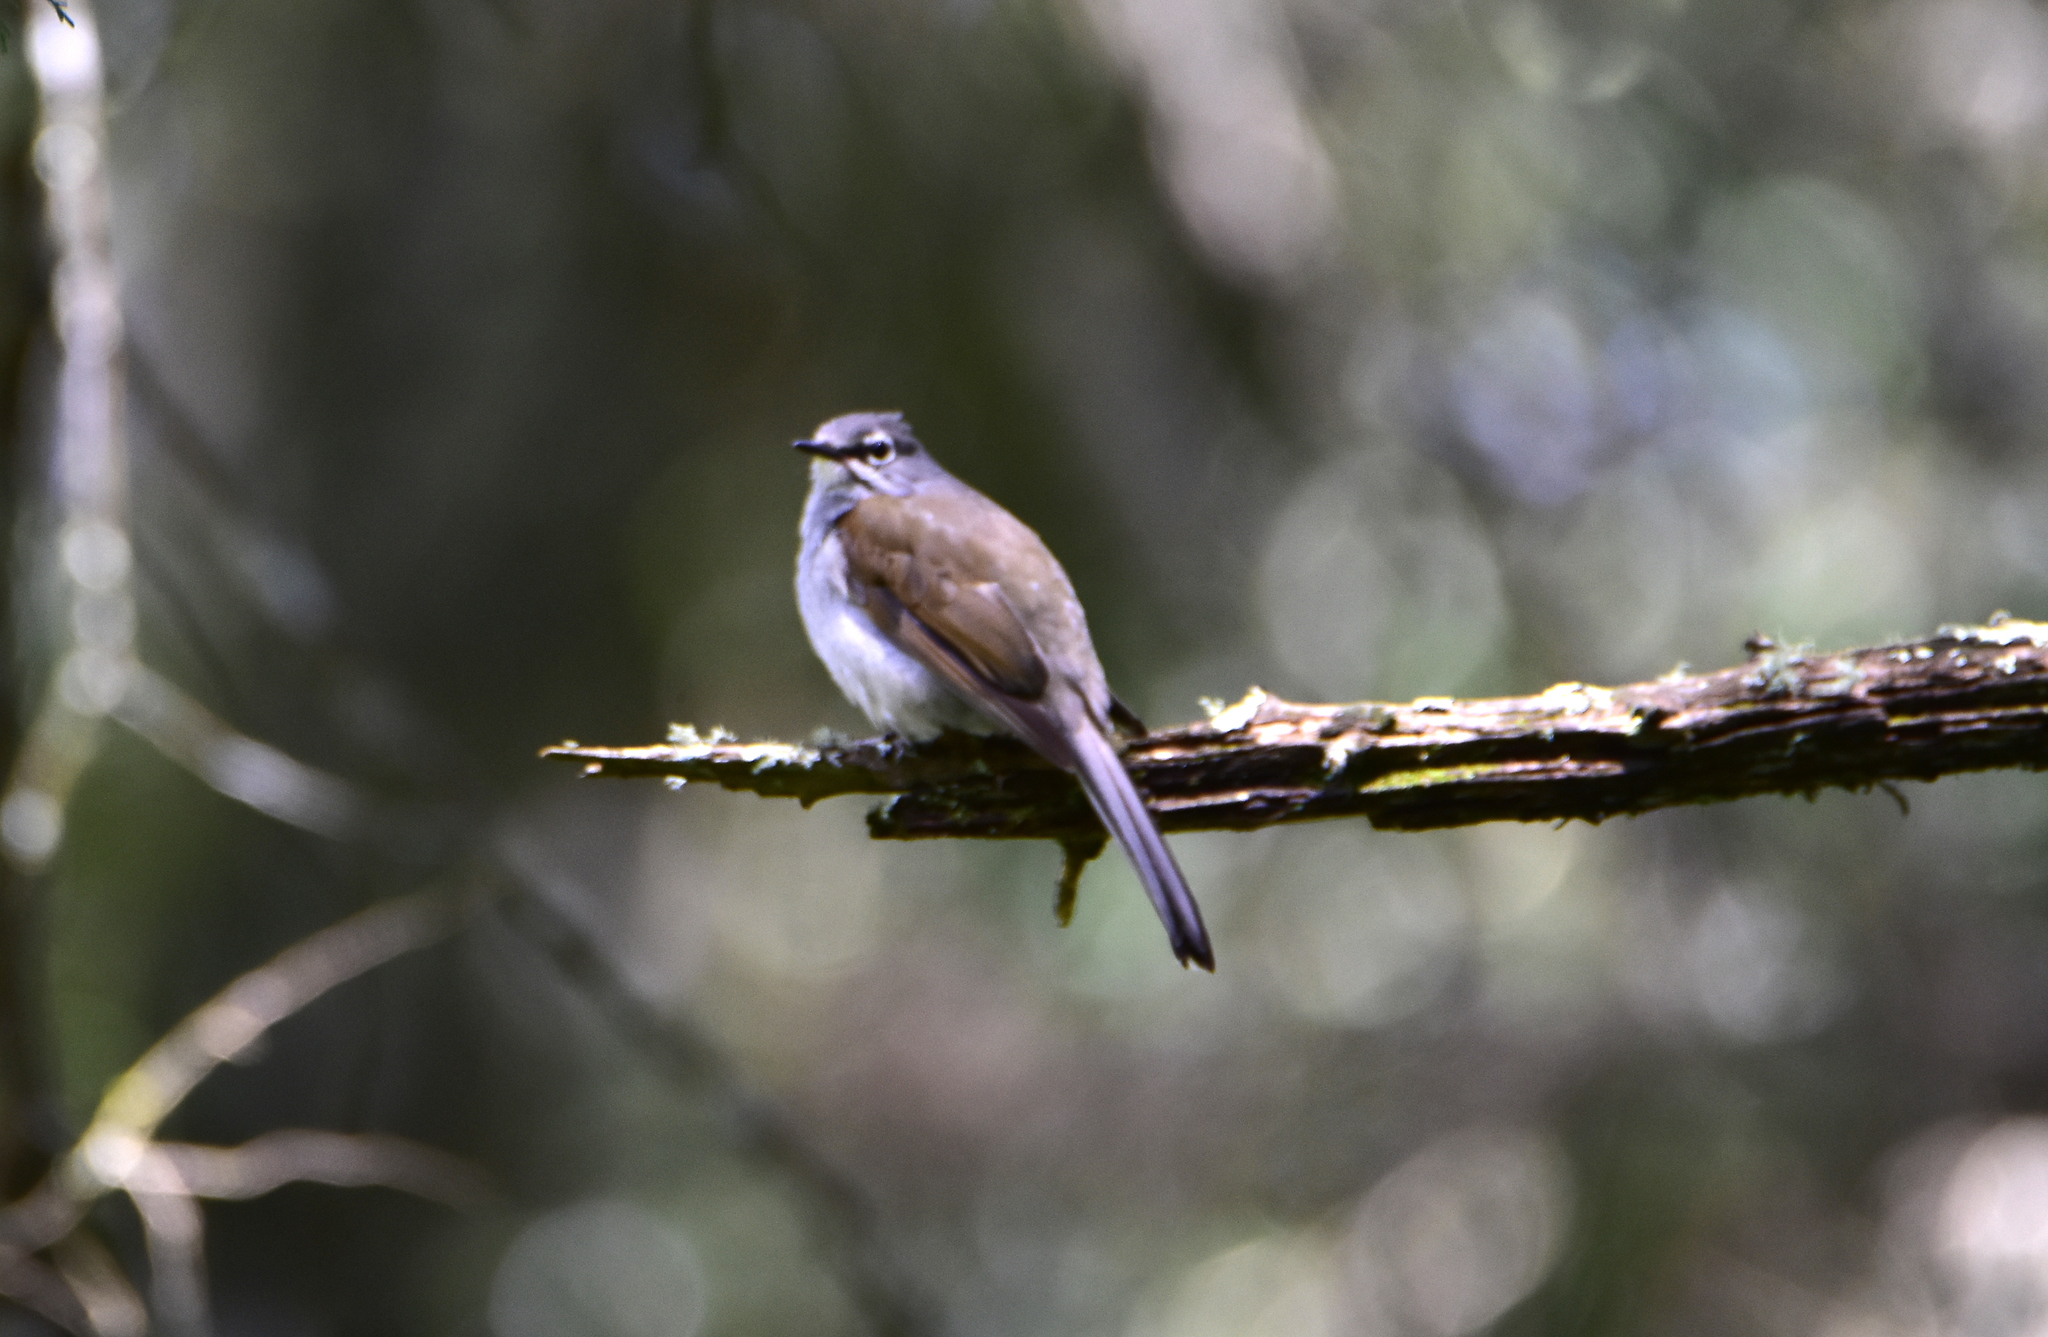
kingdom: Animalia
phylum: Chordata
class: Aves
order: Passeriformes
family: Turdidae
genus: Myadestes
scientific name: Myadestes occidentalis
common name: Brown-backed solitaire
